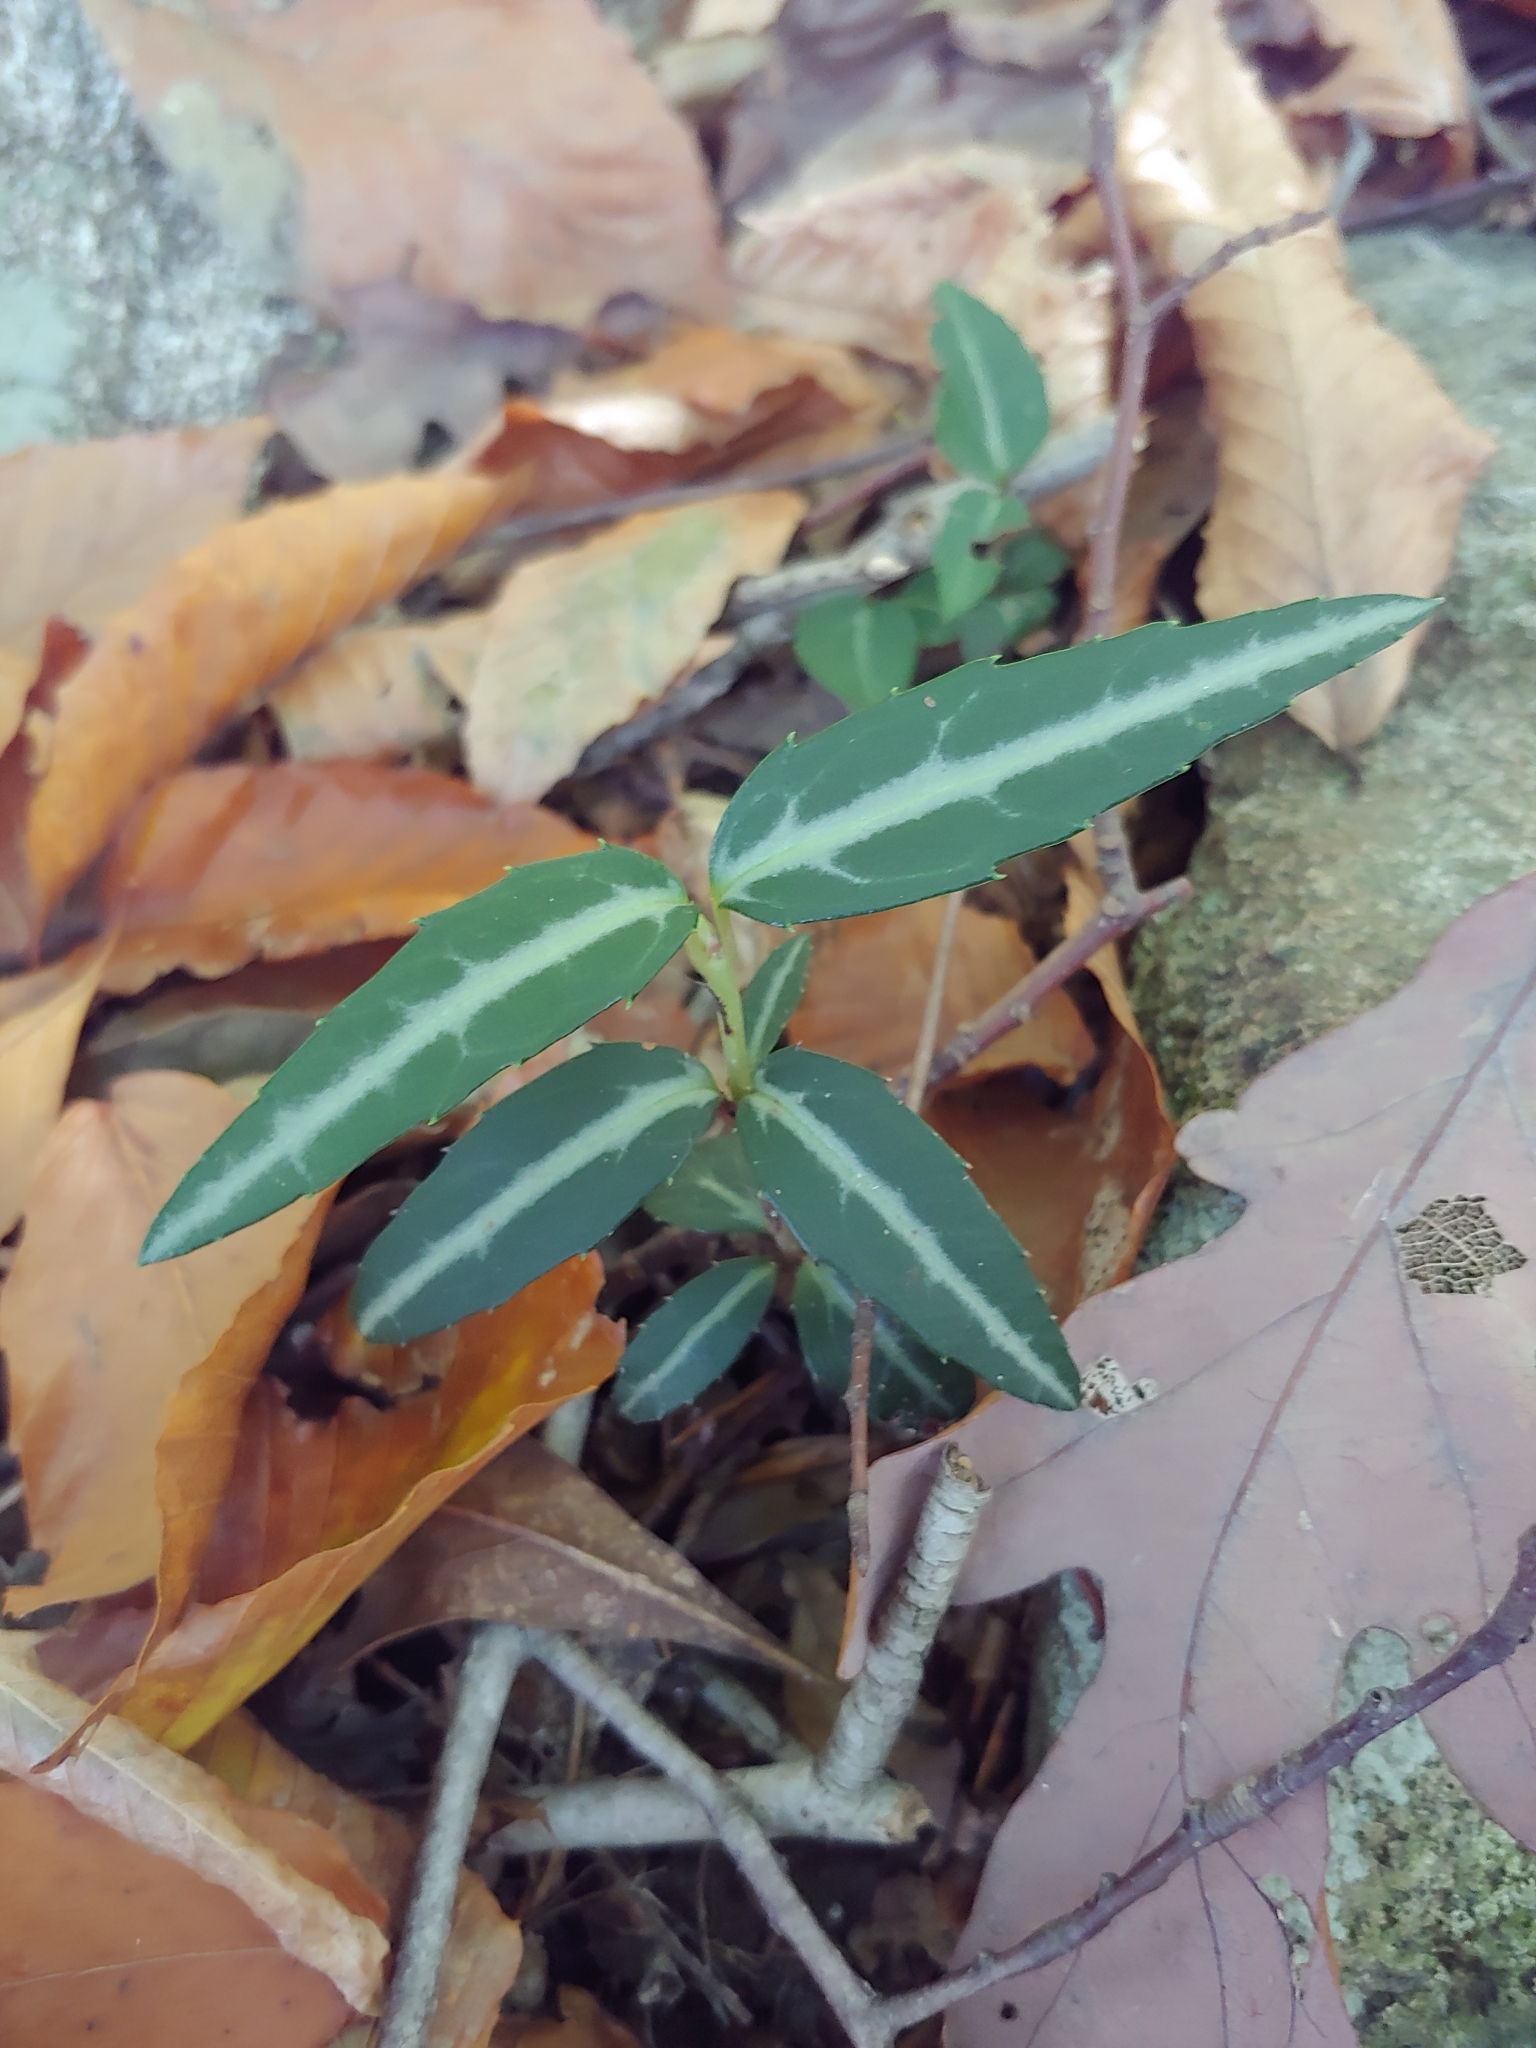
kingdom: Plantae
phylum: Tracheophyta
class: Magnoliopsida
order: Ericales
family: Ericaceae
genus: Chimaphila
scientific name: Chimaphila maculata
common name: Spotted pipsissewa
